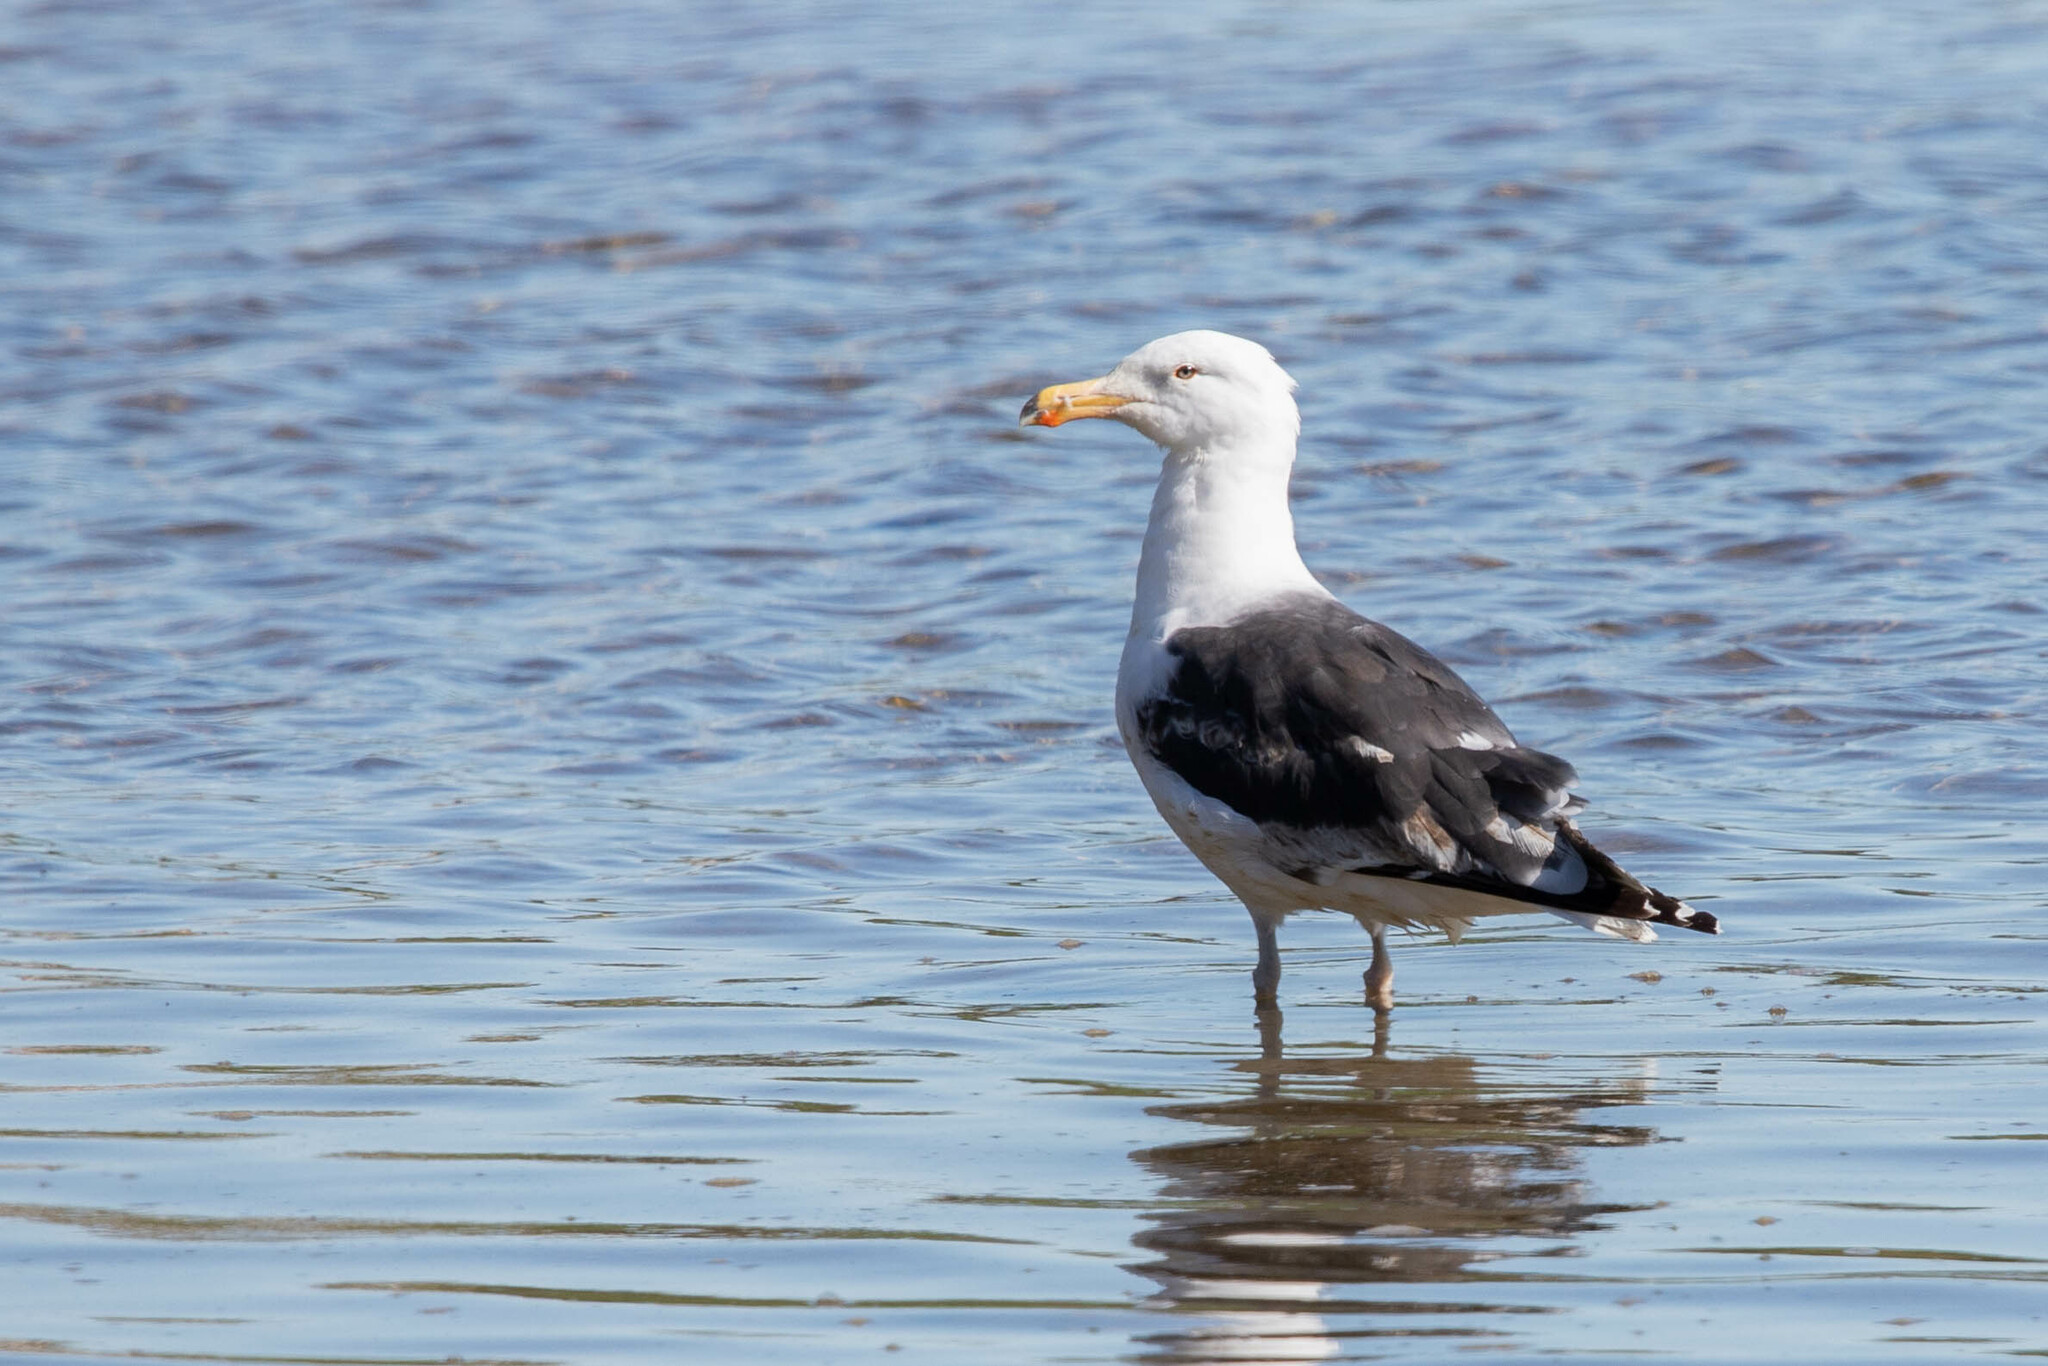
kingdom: Animalia
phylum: Chordata
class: Aves
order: Charadriiformes
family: Laridae
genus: Larus
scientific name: Larus marinus
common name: Great black-backed gull
